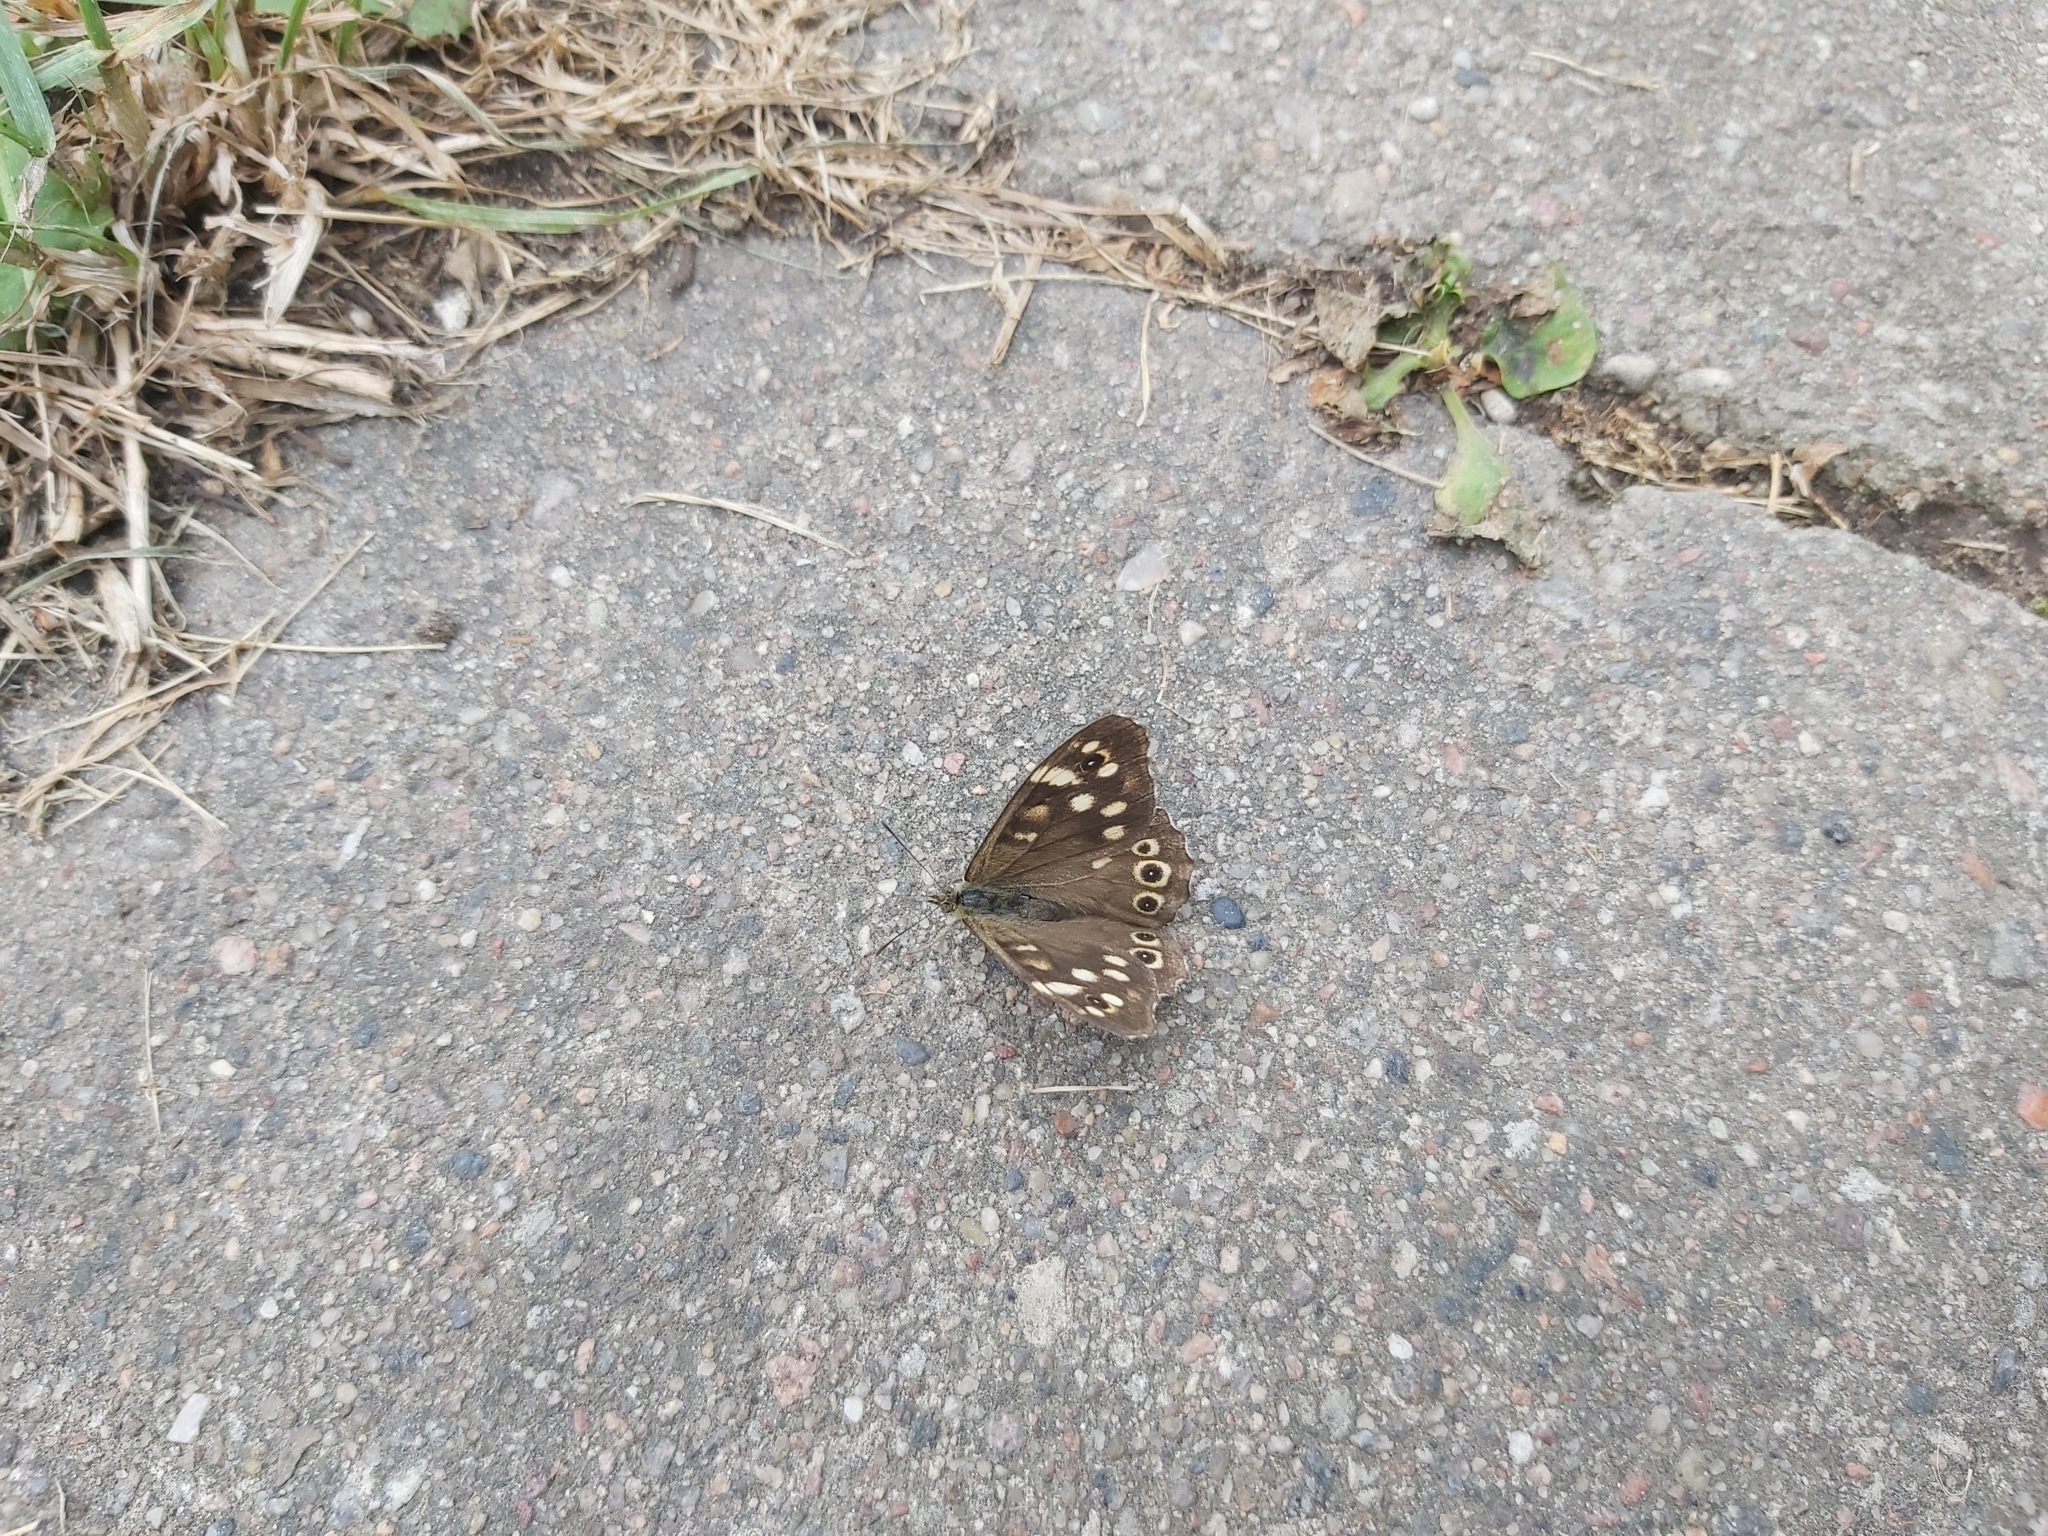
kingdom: Animalia
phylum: Arthropoda
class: Insecta
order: Lepidoptera
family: Nymphalidae
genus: Pararge
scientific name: Pararge aegeria
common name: Speckled wood
